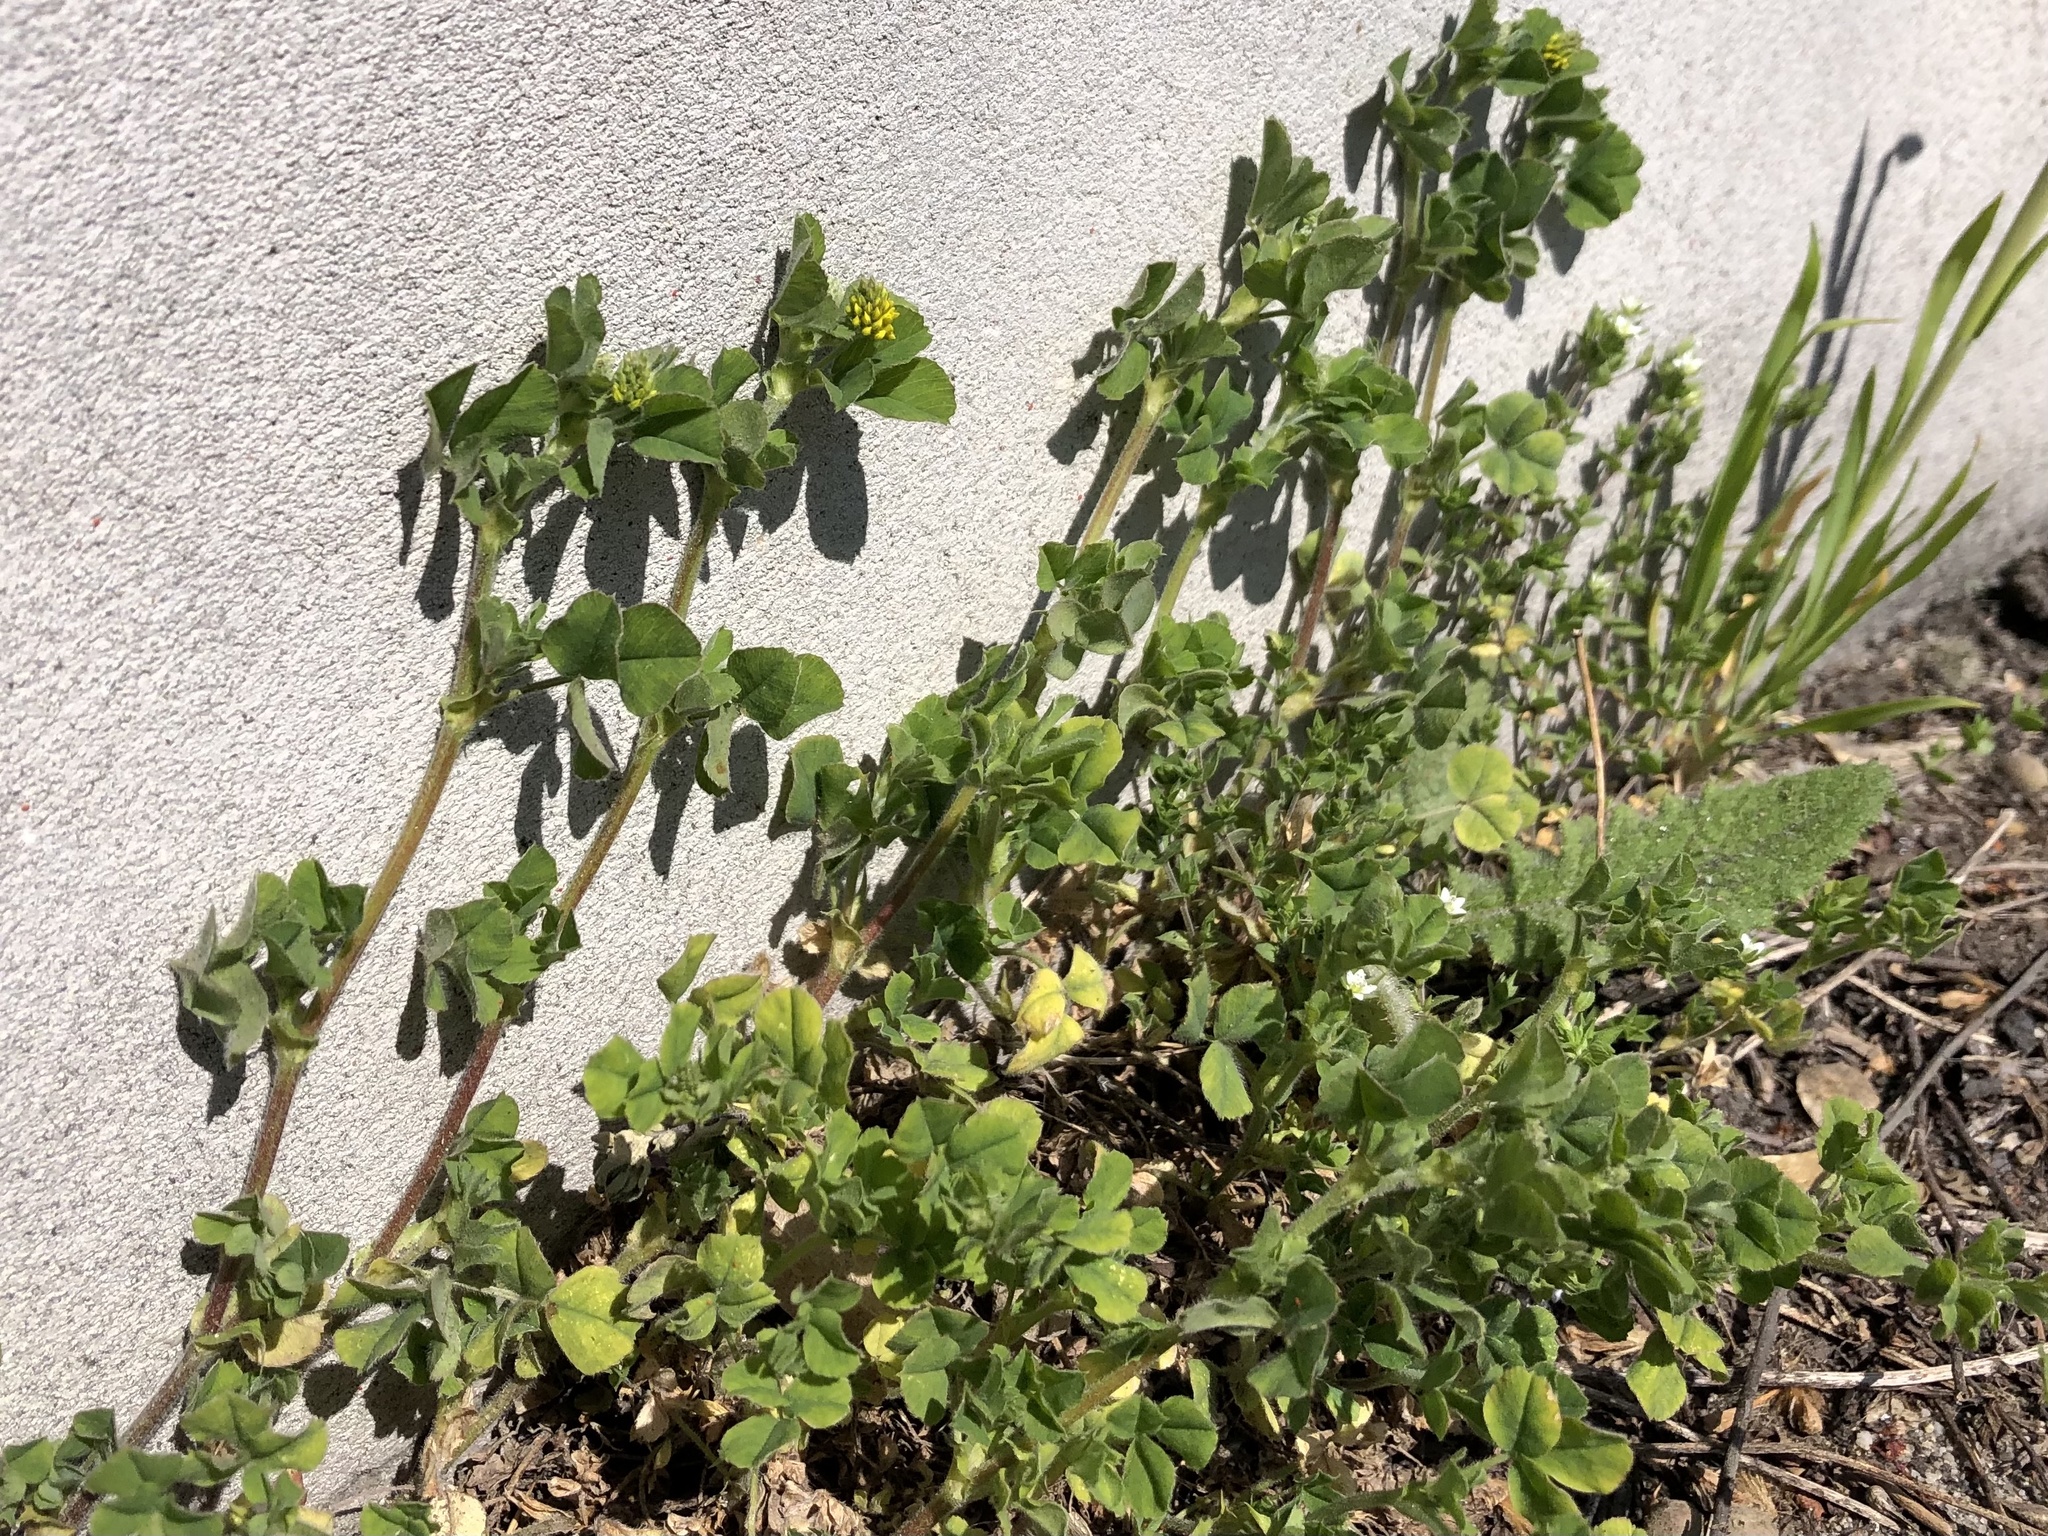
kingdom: Plantae
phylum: Tracheophyta
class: Magnoliopsida
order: Fabales
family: Fabaceae
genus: Medicago
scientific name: Medicago lupulina
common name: Black medick
